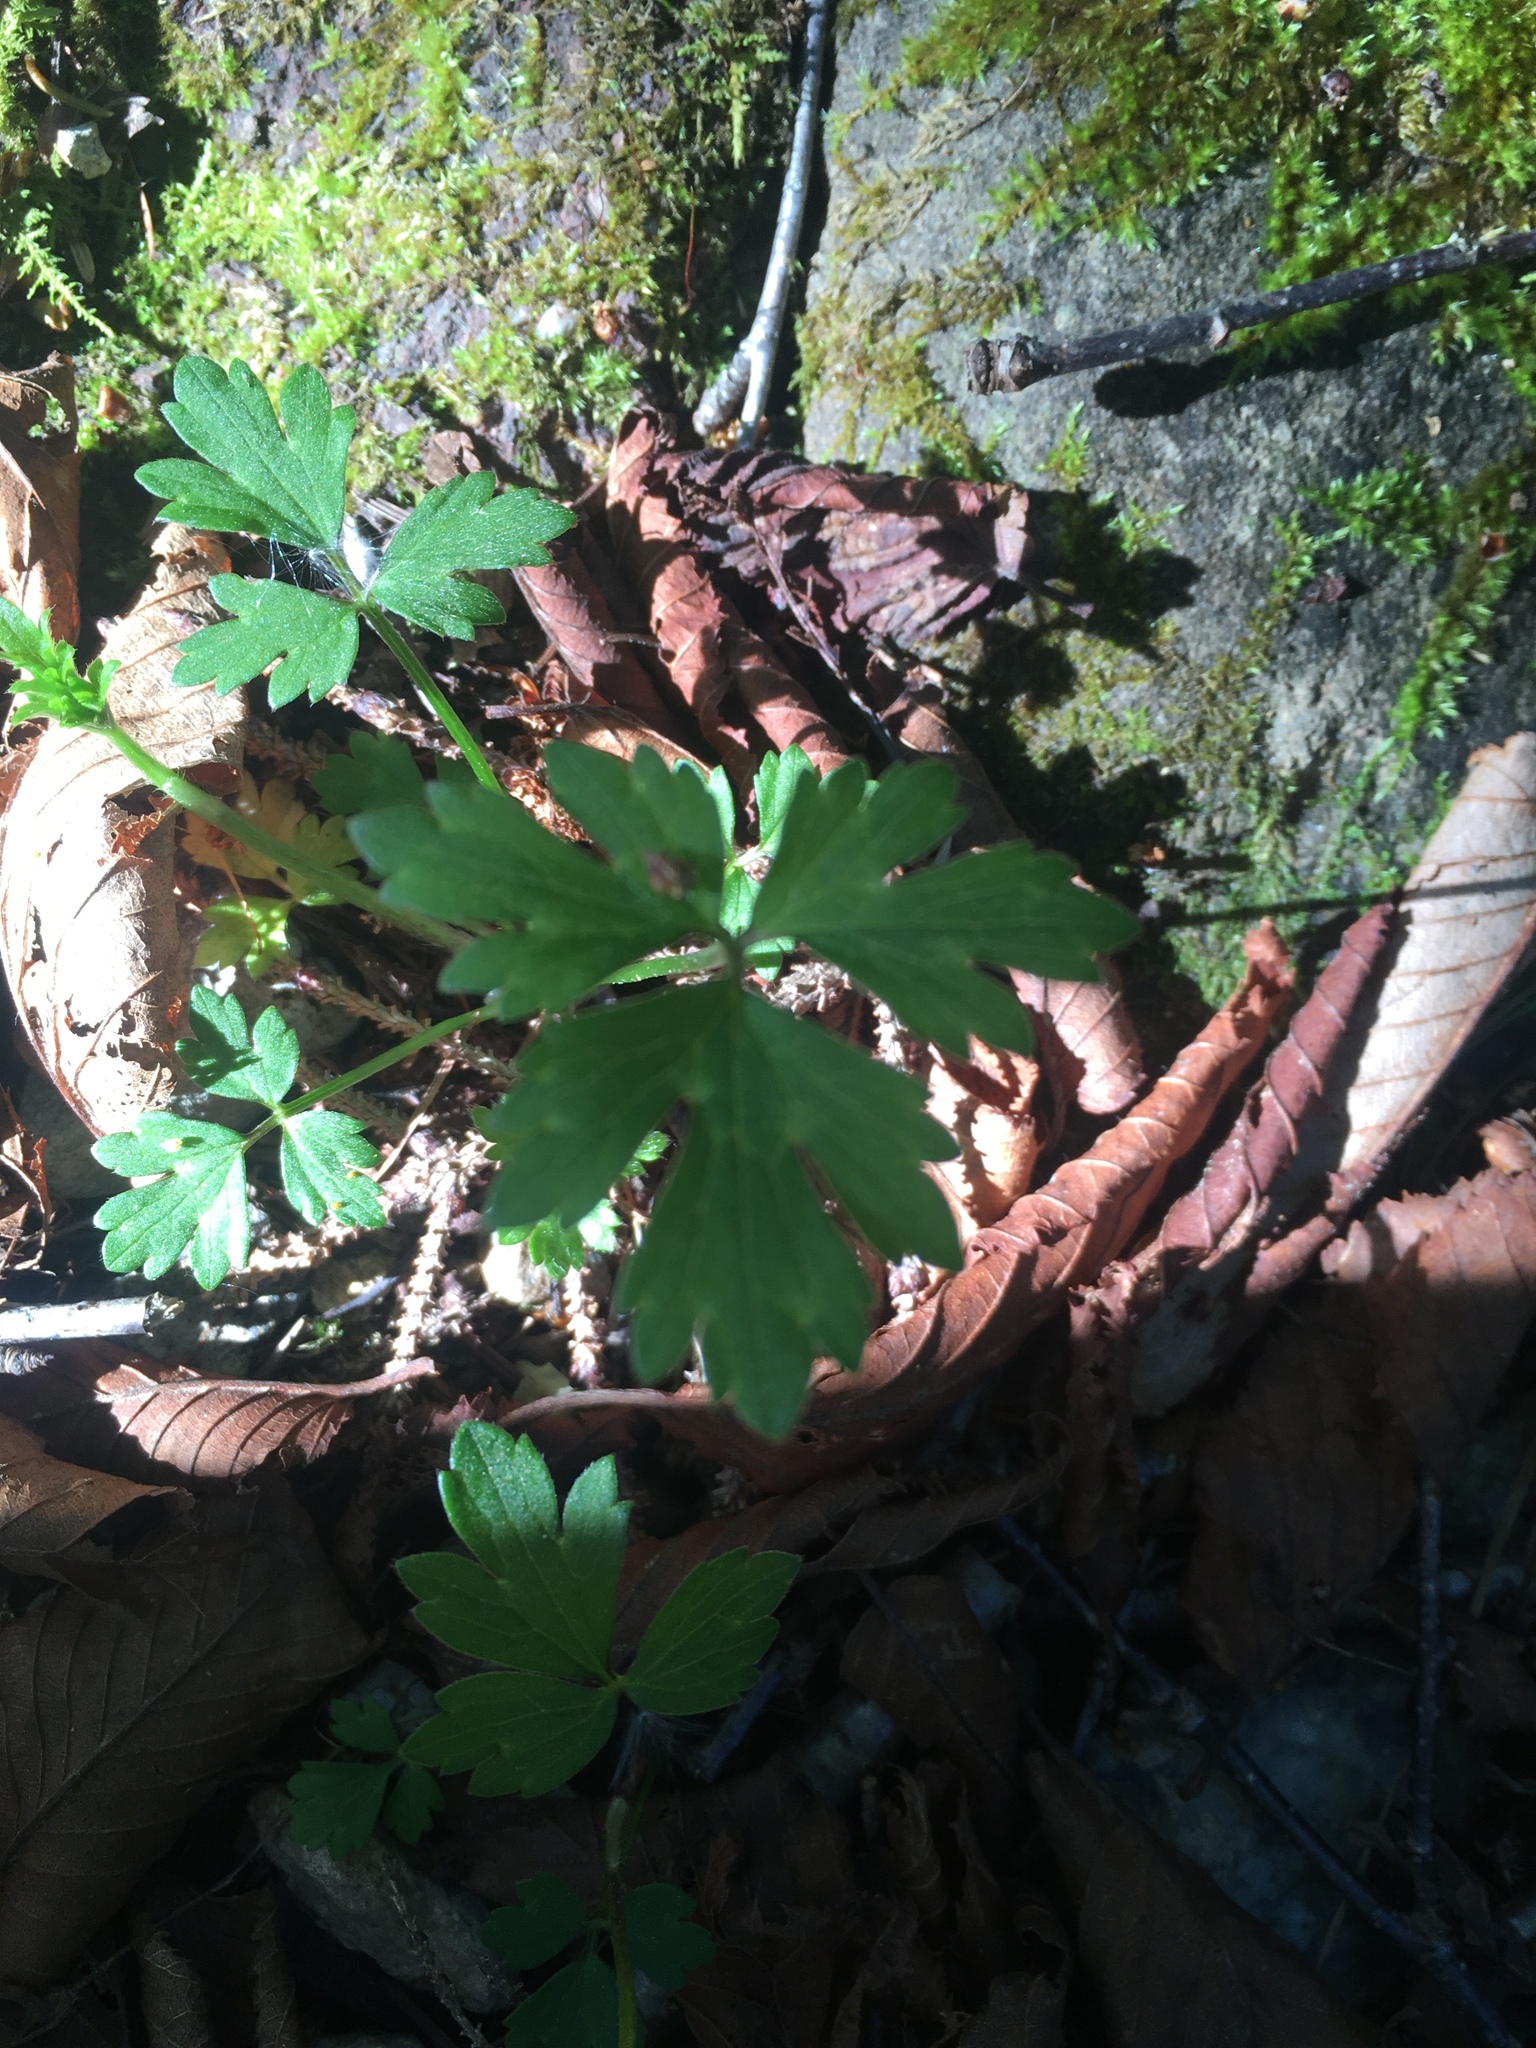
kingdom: Plantae
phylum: Tracheophyta
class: Magnoliopsida
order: Ranunculales
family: Ranunculaceae
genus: Ranunculus
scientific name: Ranunculus repens
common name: Creeping buttercup
